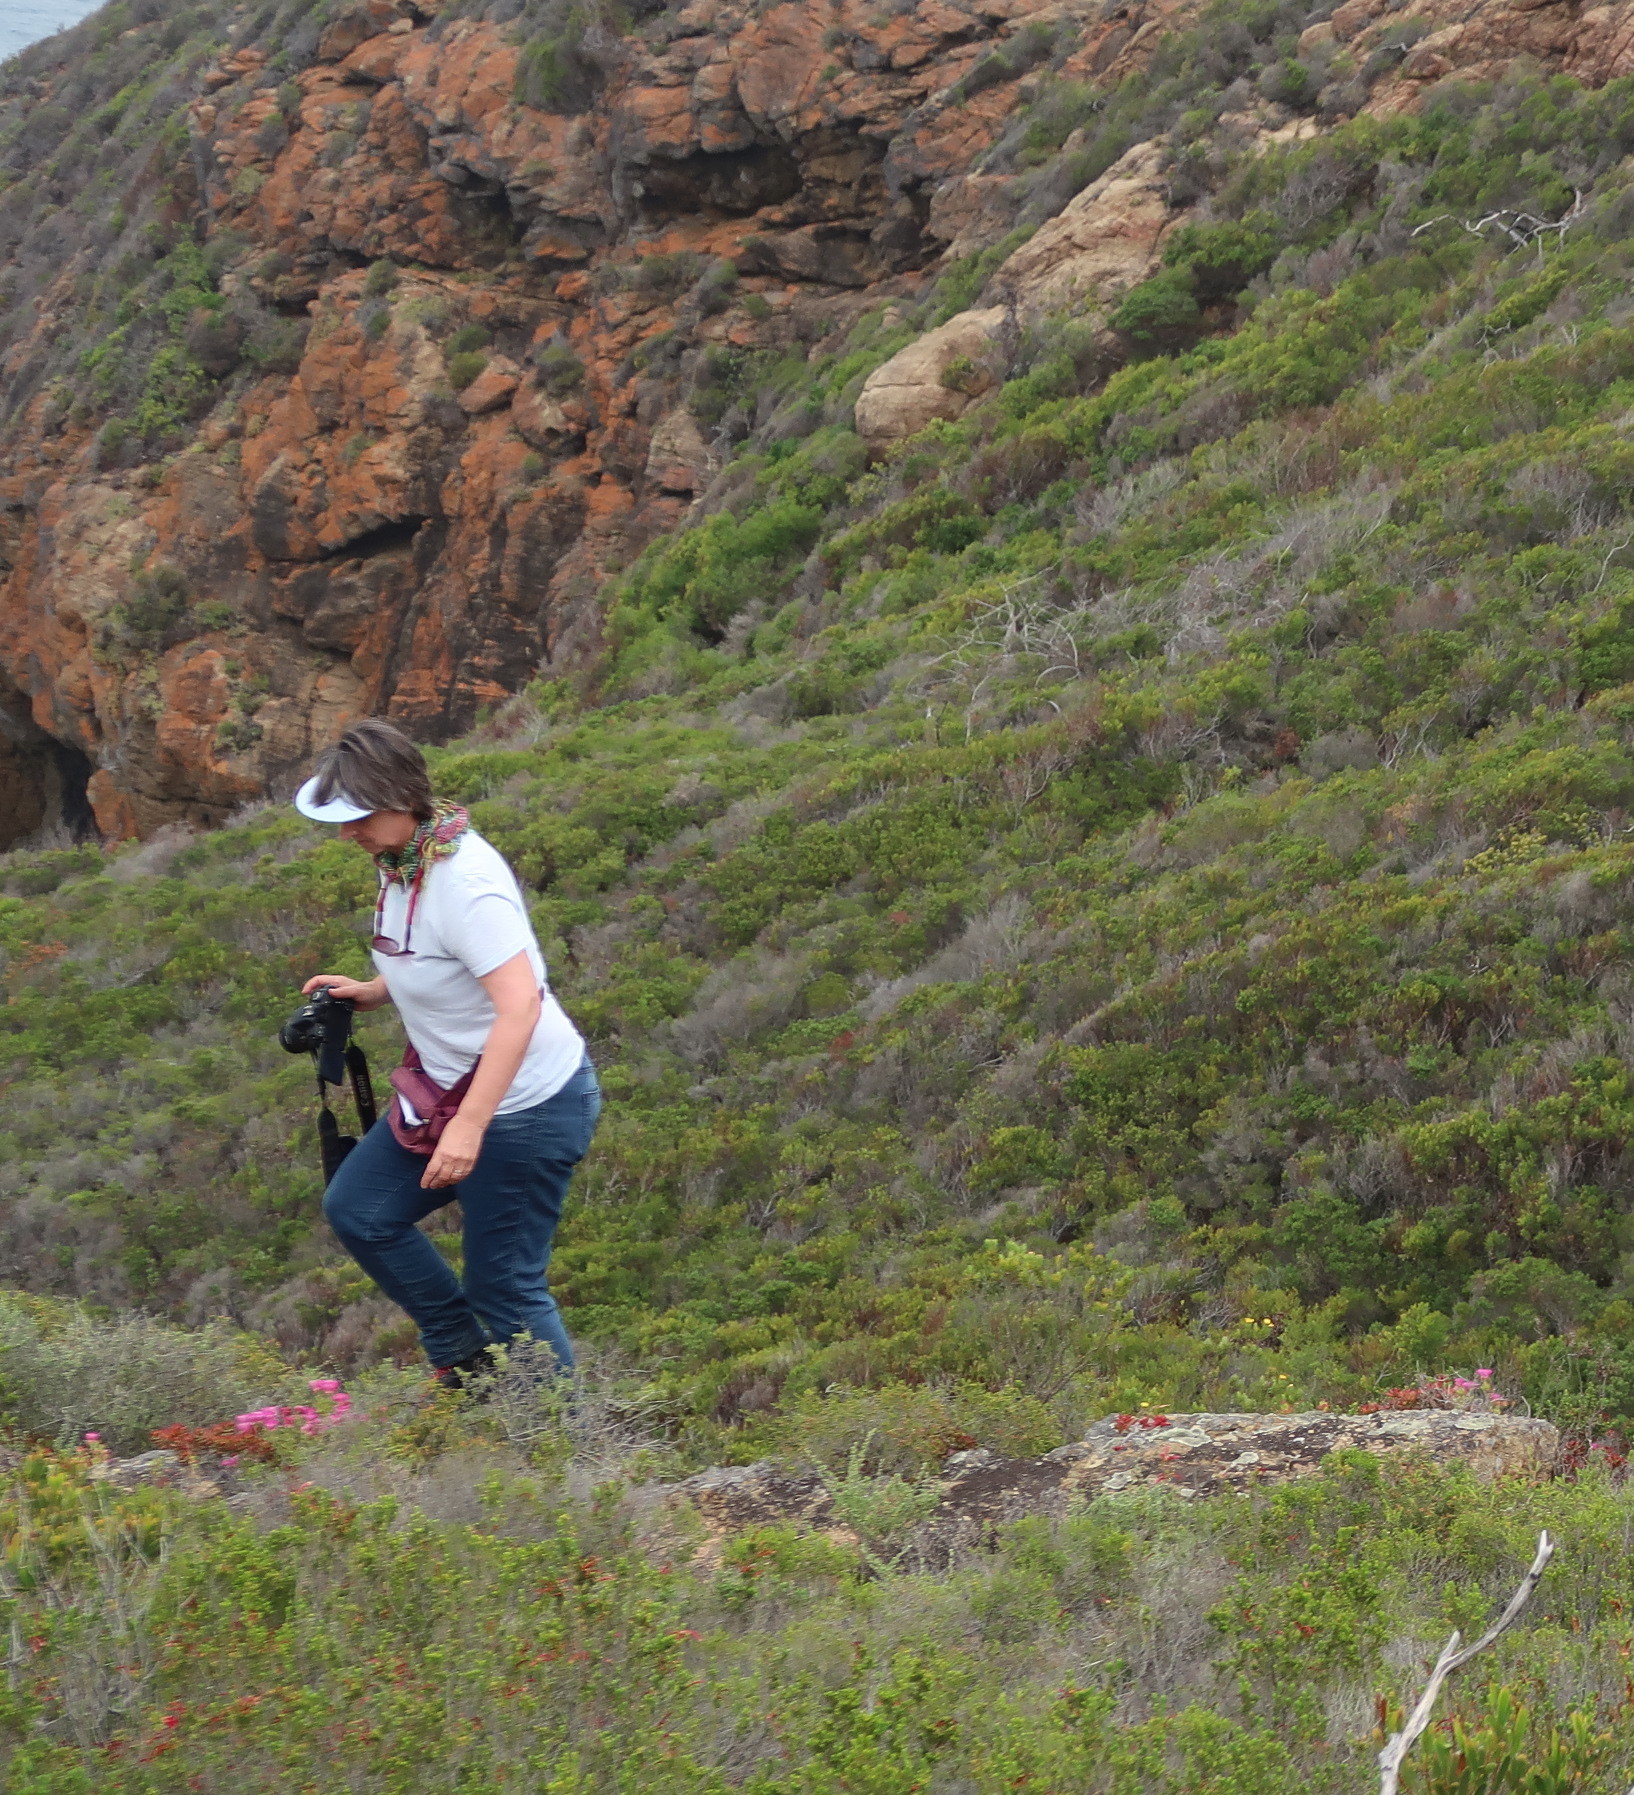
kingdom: Plantae
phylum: Tracheophyta
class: Magnoliopsida
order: Caryophyllales
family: Aizoaceae
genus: Drosanthemum
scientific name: Drosanthemum edwardsiae
